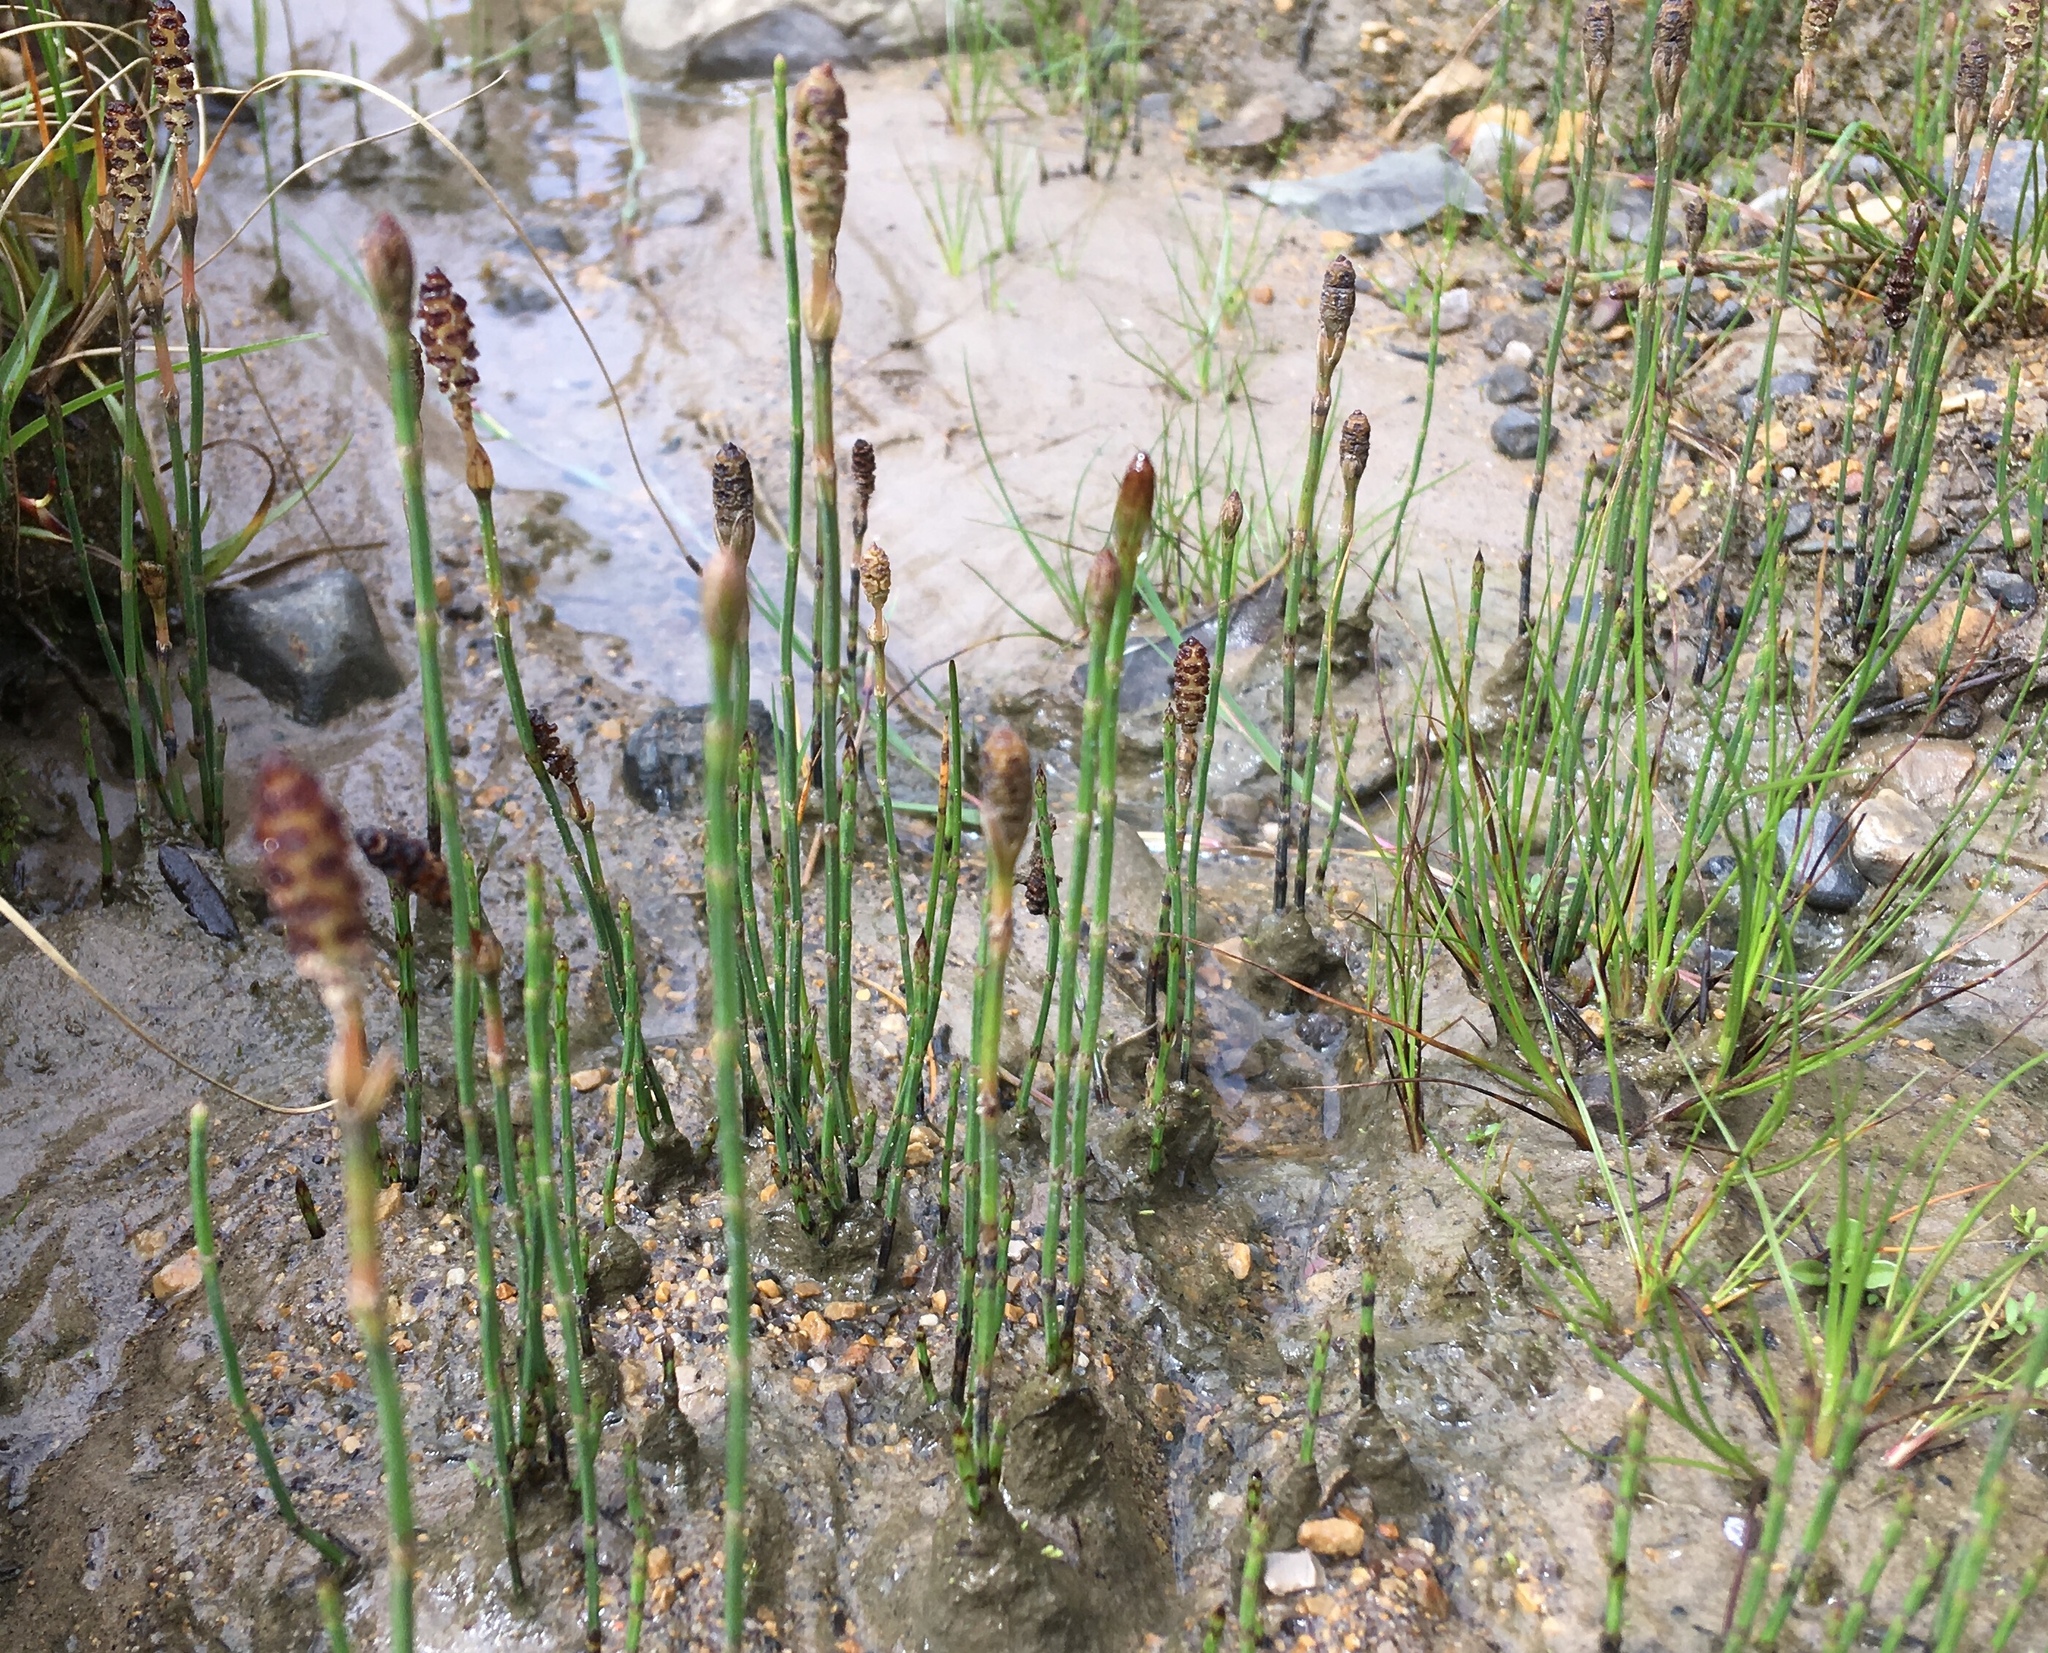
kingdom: Plantae
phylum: Tracheophyta
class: Polypodiopsida
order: Equisetales
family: Equisetaceae
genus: Equisetum
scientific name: Equisetum bogotense
